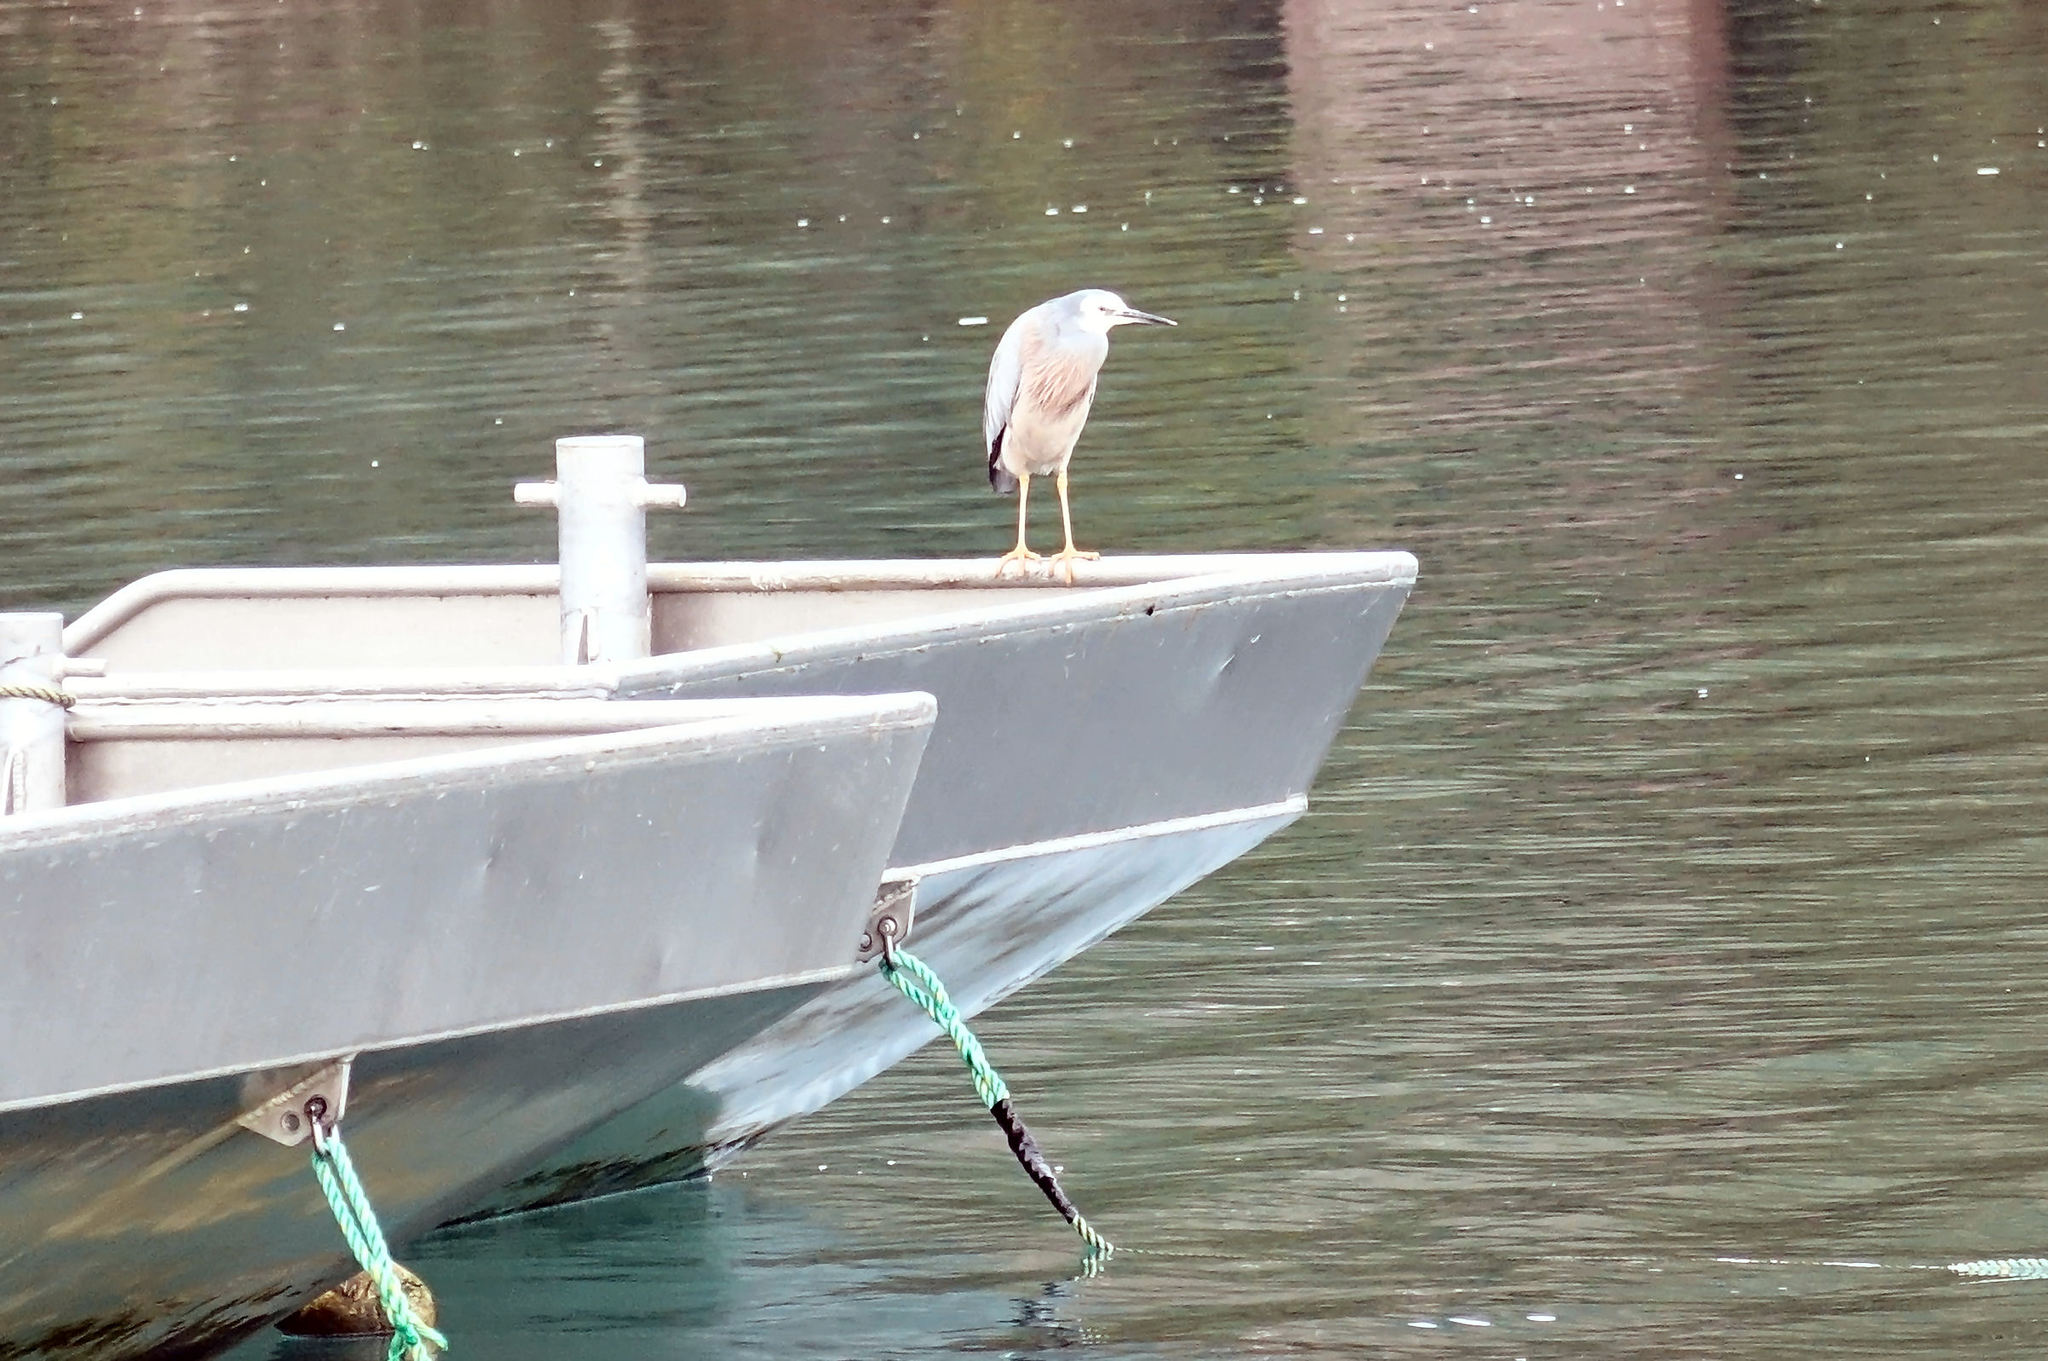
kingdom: Animalia
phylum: Chordata
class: Aves
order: Pelecaniformes
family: Ardeidae
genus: Egretta
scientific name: Egretta novaehollandiae
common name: White-faced heron
